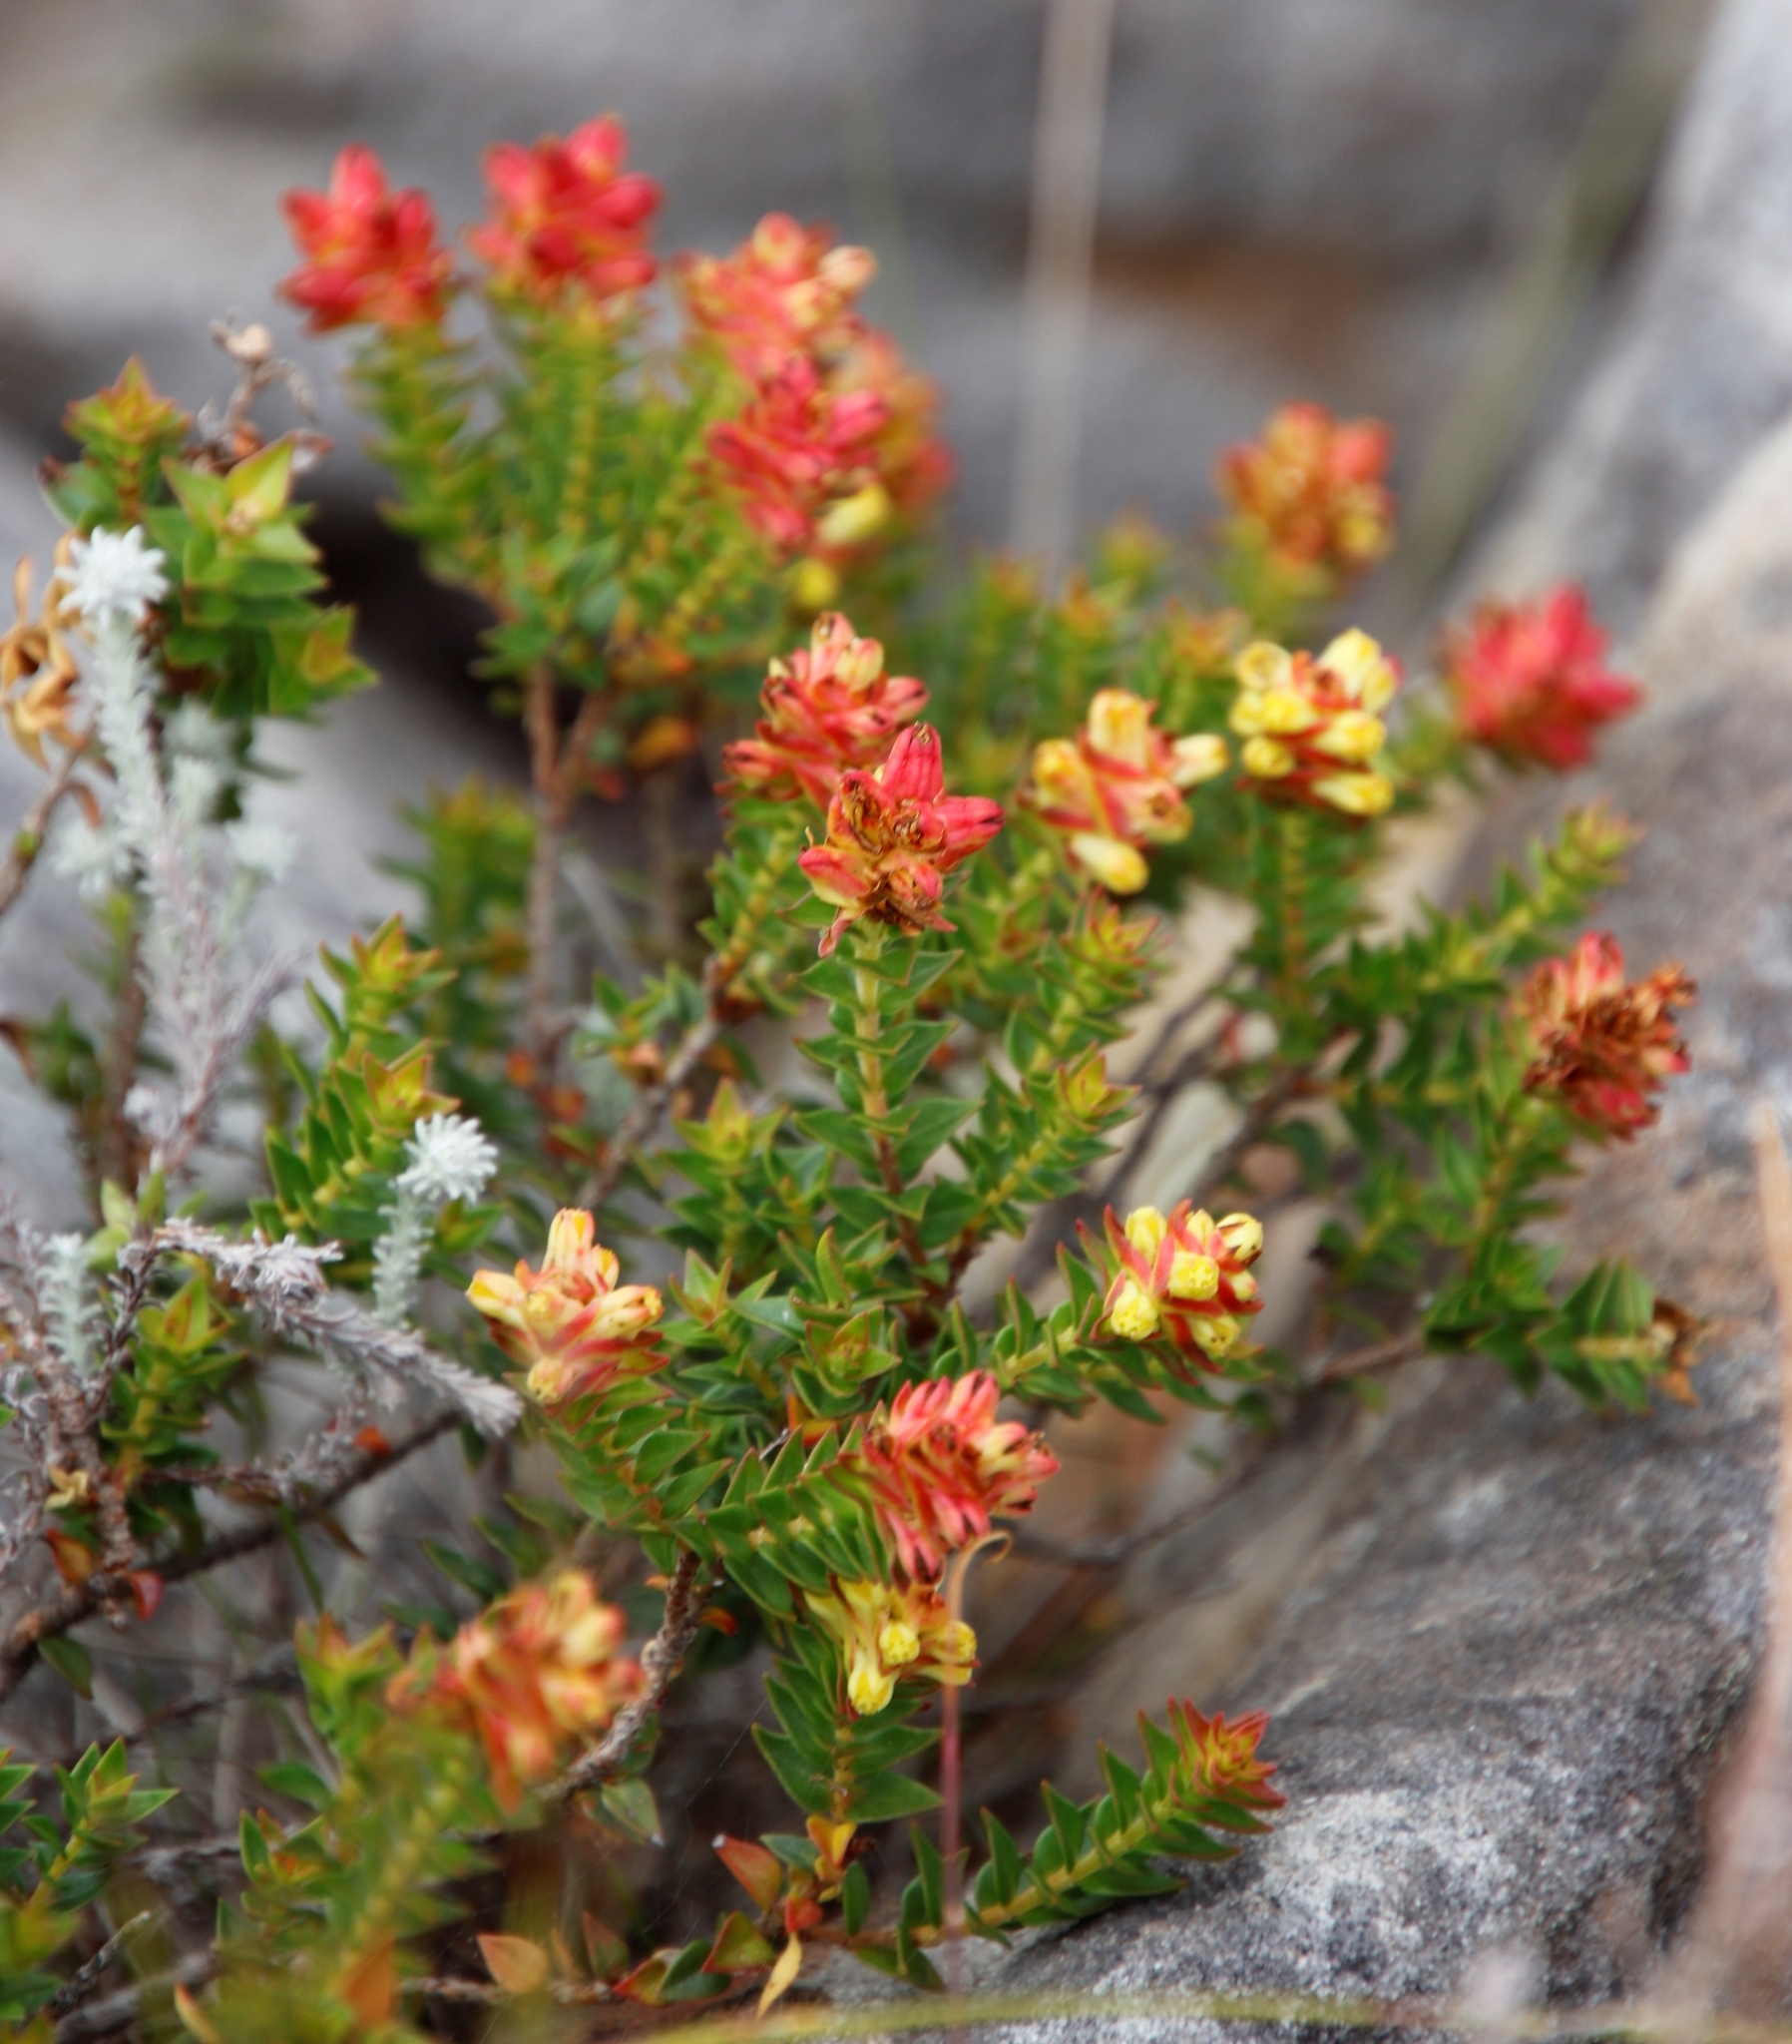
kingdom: Plantae
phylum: Tracheophyta
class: Magnoliopsida
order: Myrtales
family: Penaeaceae
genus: Penaea
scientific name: Penaea mucronata
